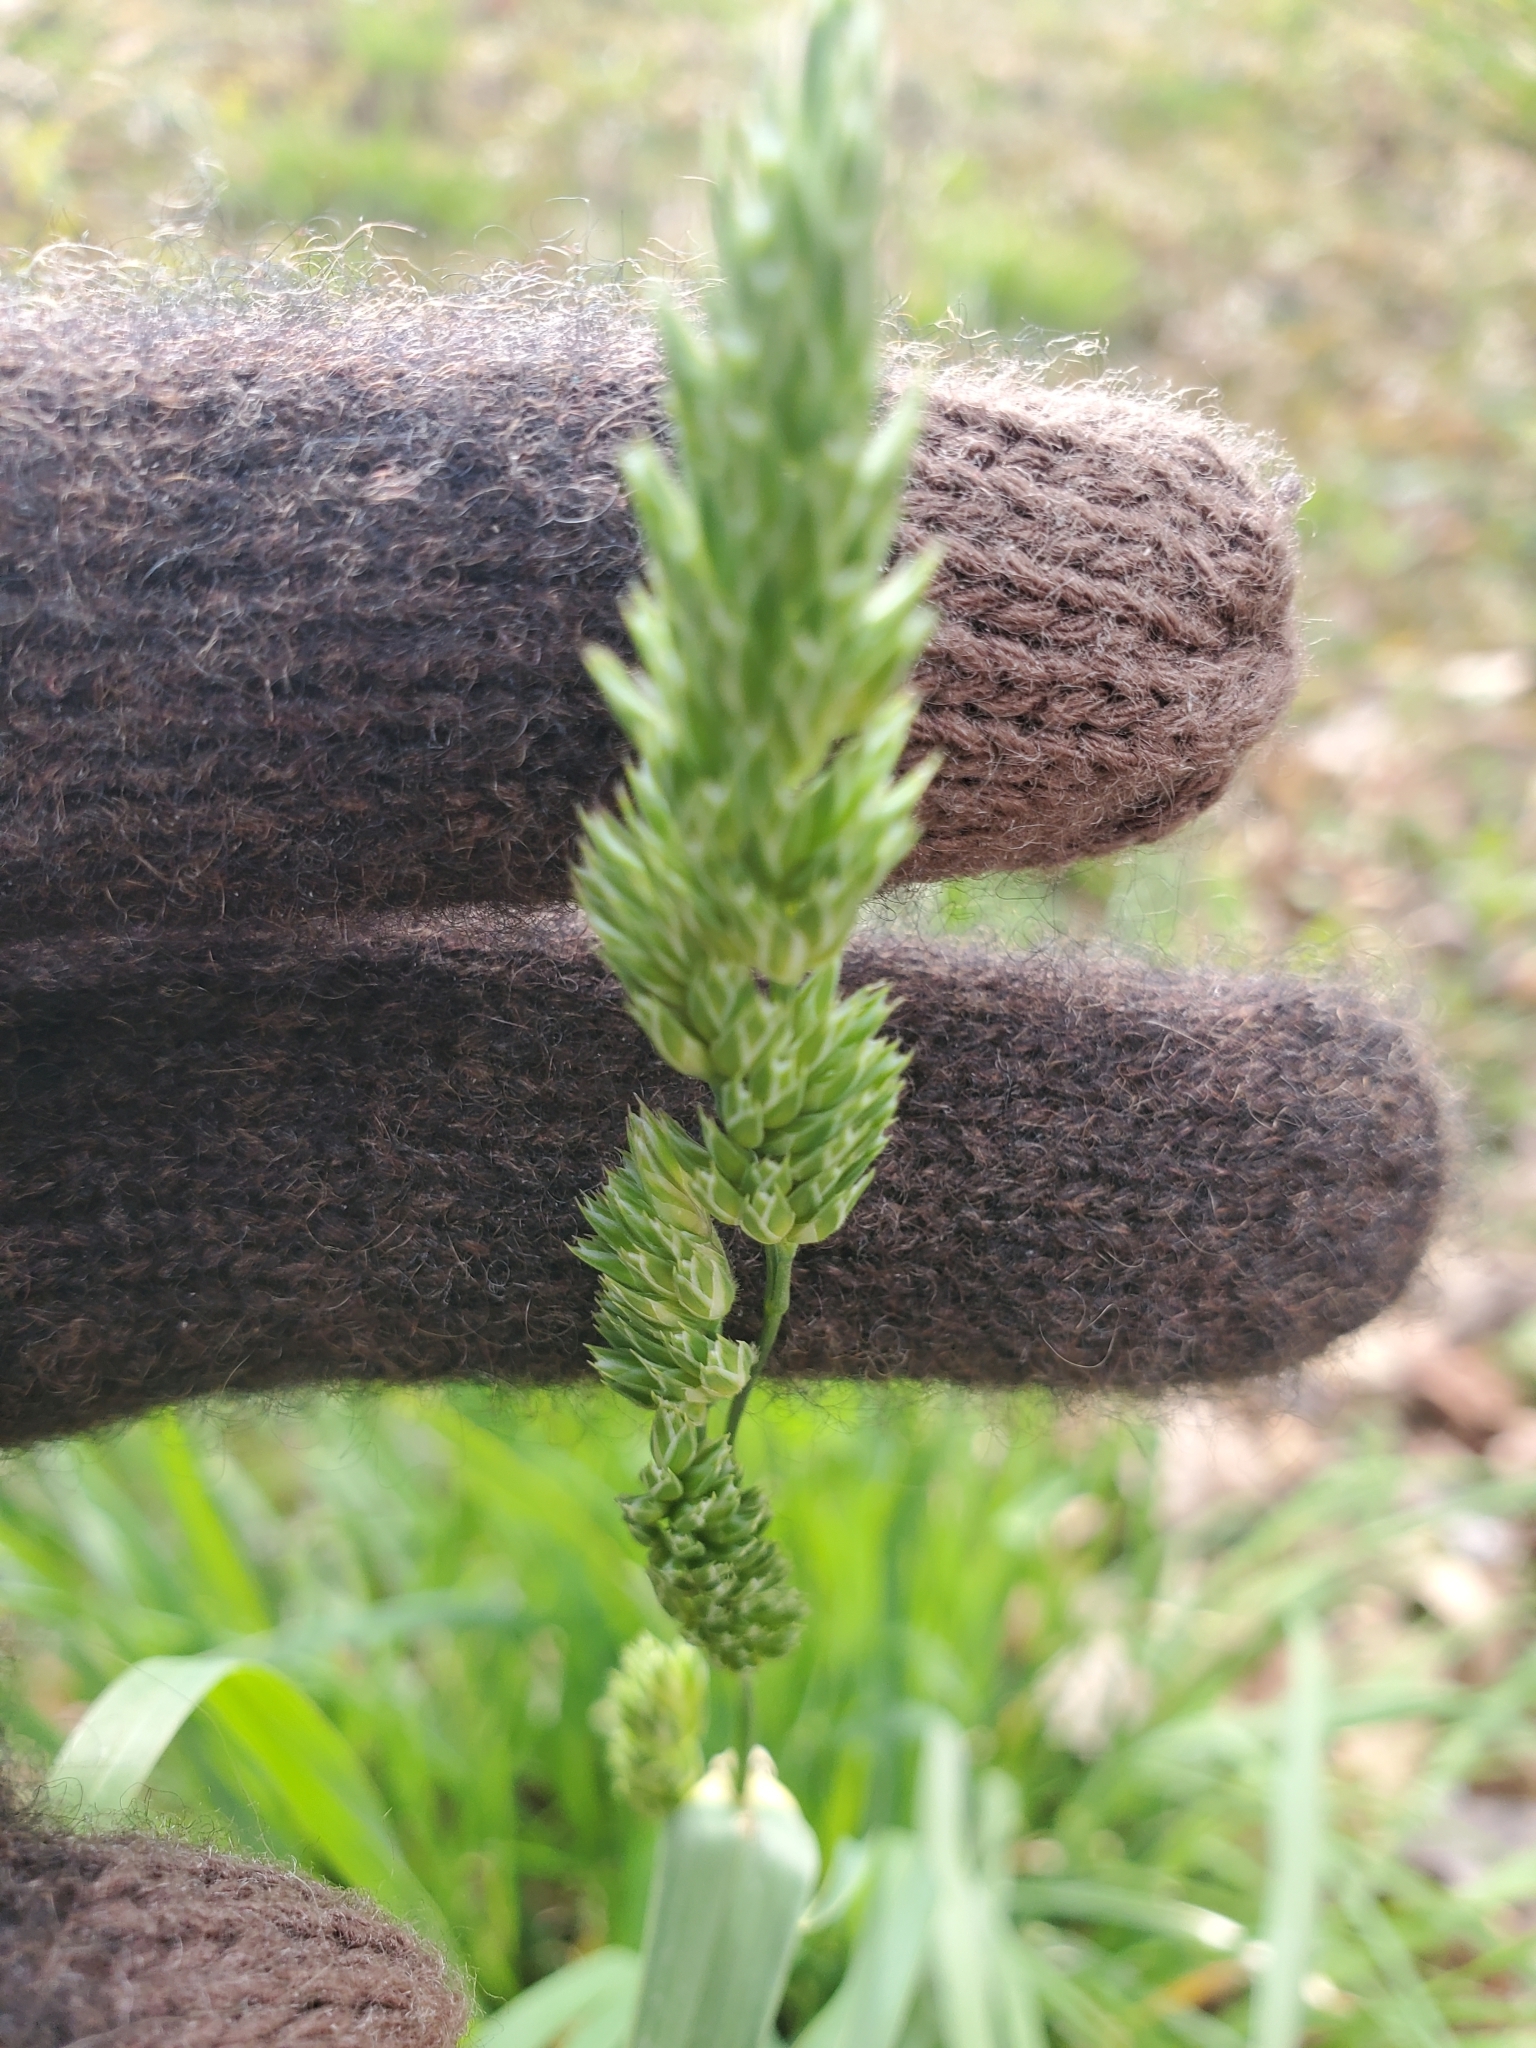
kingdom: Plantae
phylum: Tracheophyta
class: Liliopsida
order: Poales
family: Poaceae
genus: Dactylis
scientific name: Dactylis glomerata
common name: Orchardgrass
